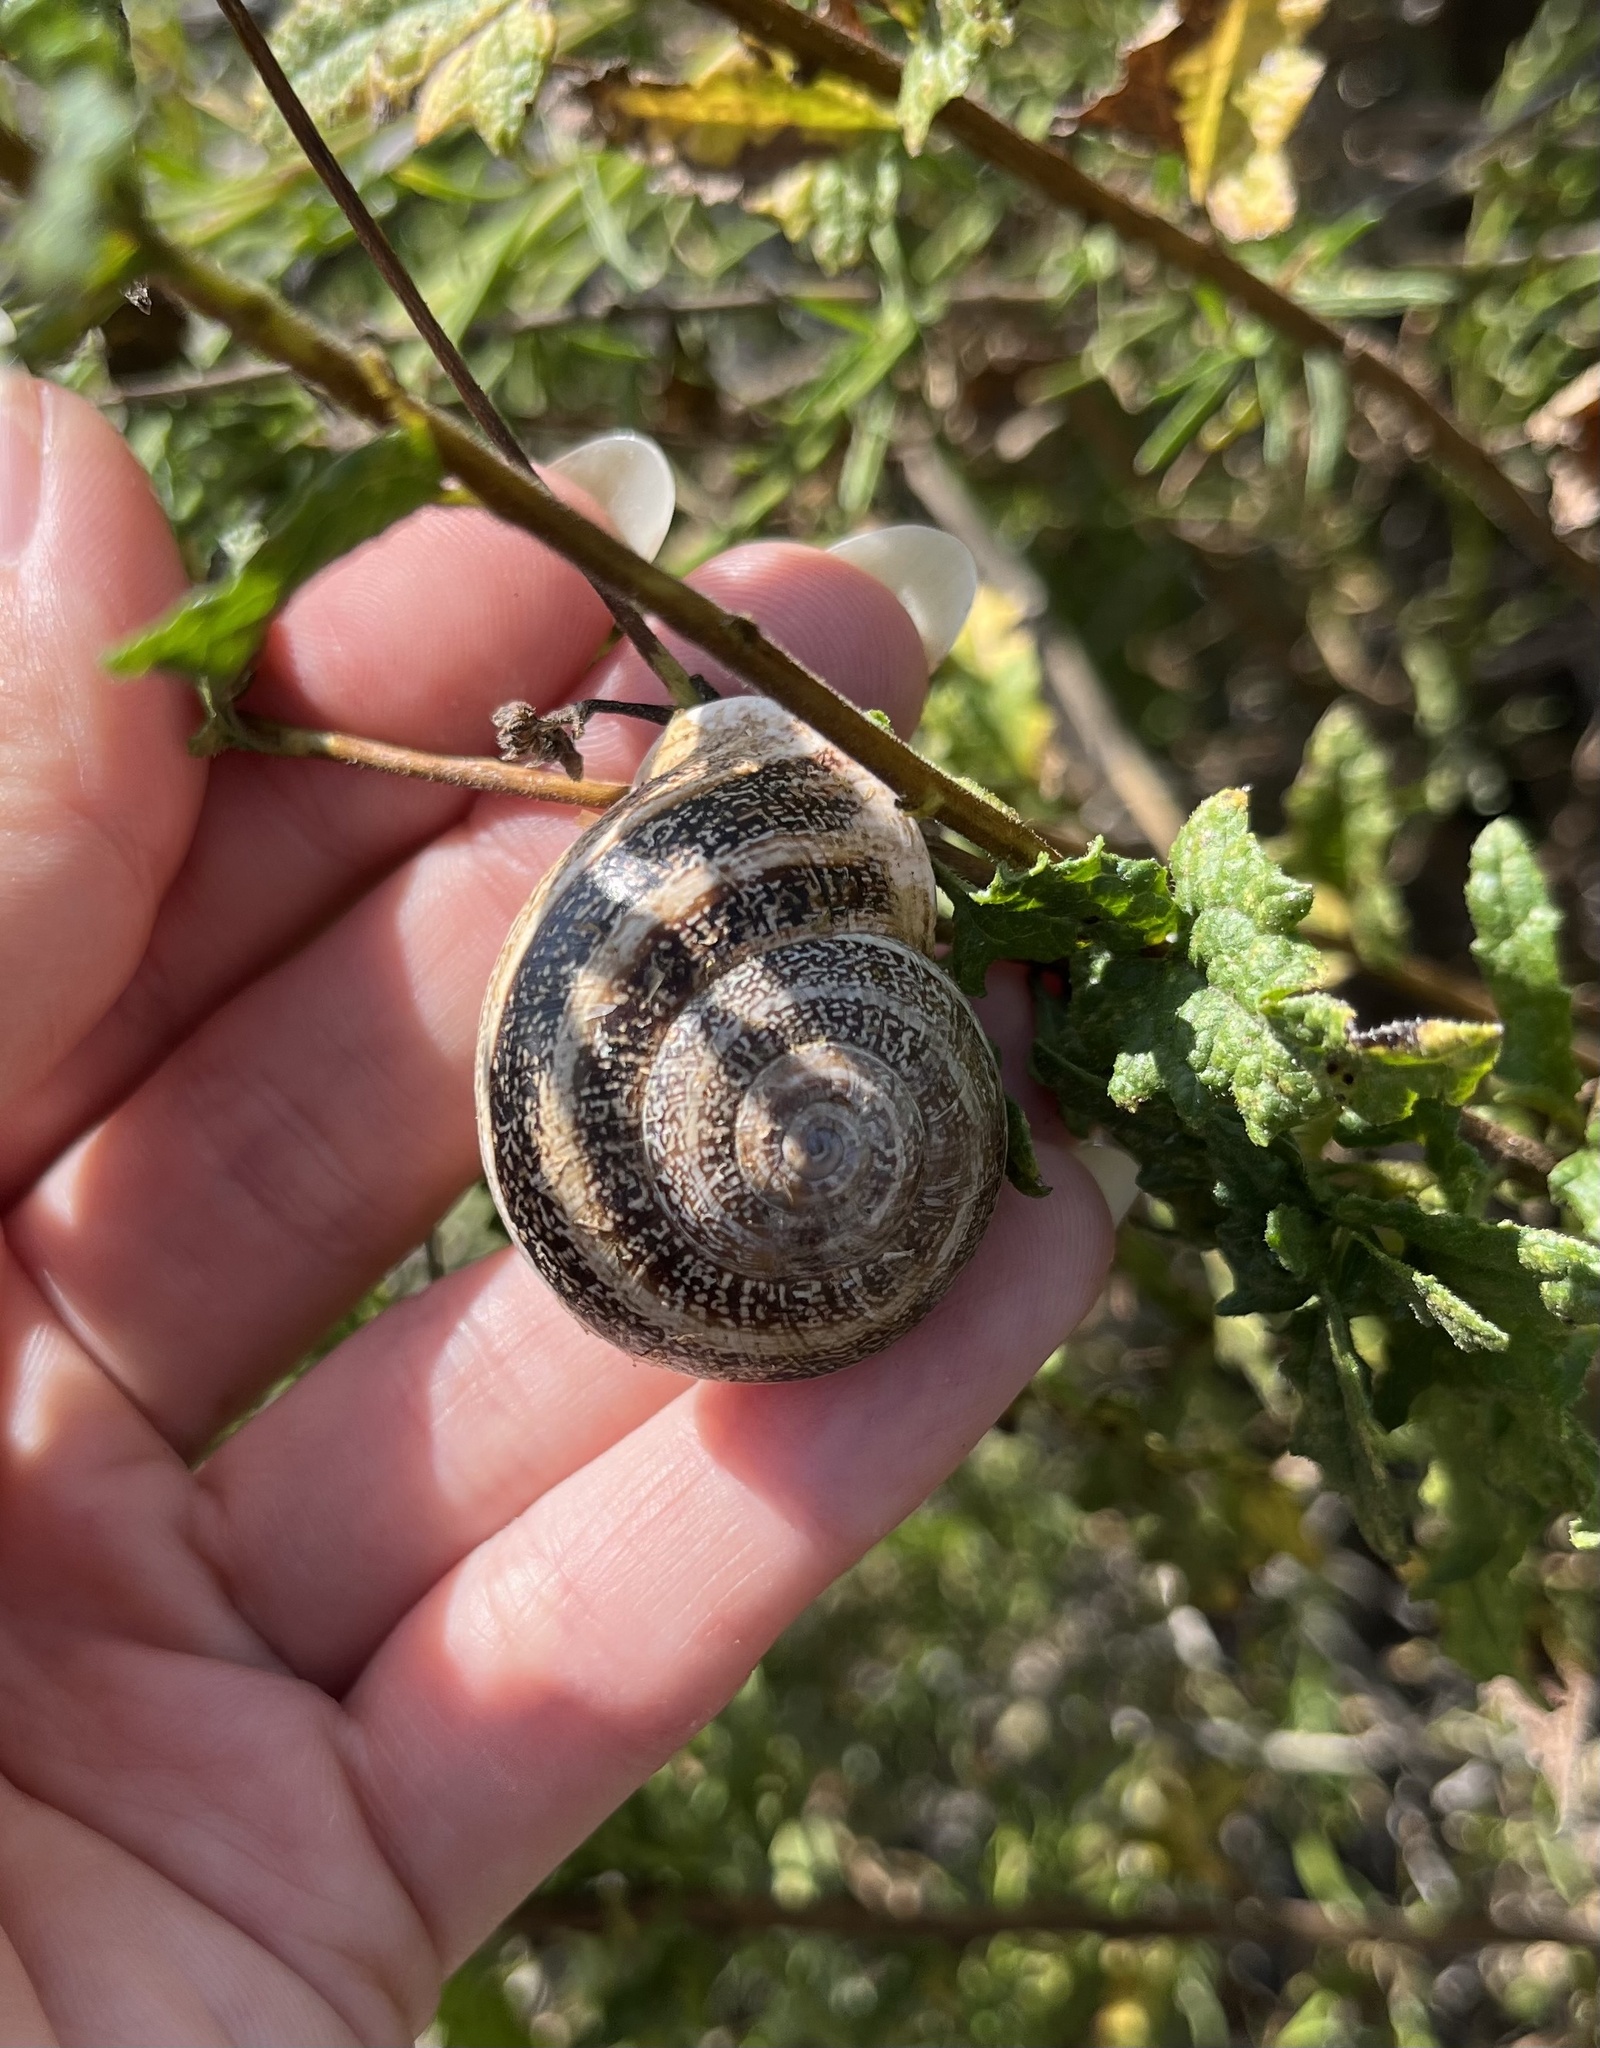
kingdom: Animalia
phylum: Mollusca
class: Gastropoda
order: Stylommatophora
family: Helicidae
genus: Otala
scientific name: Otala lactea
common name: Milk snail
